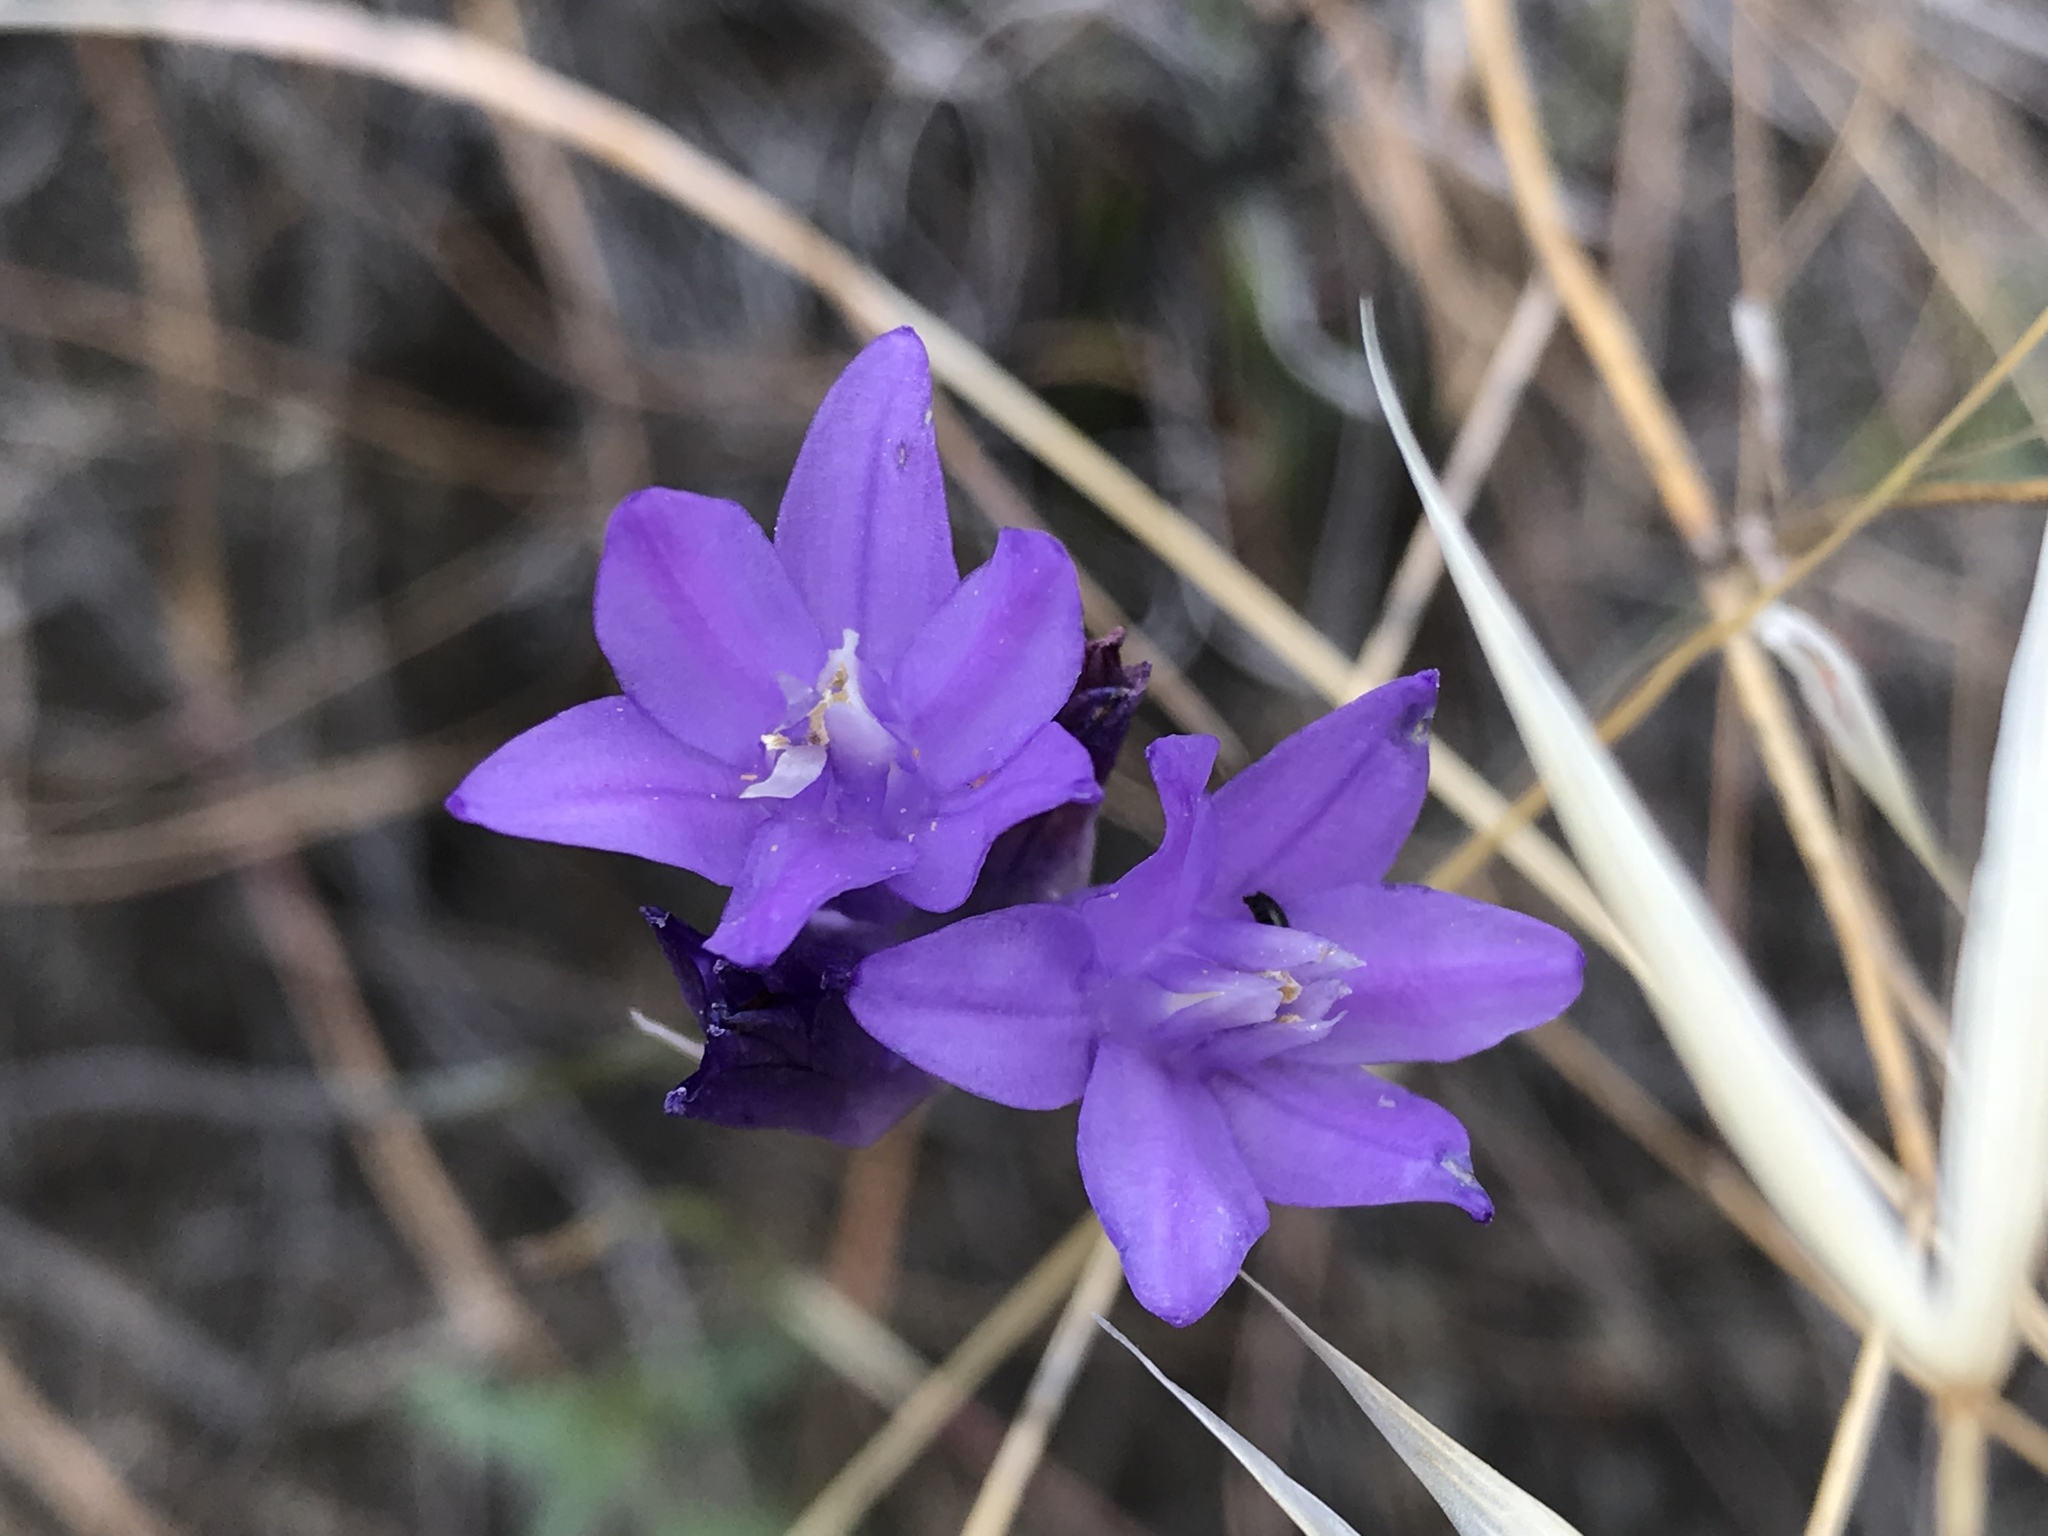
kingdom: Plantae
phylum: Tracheophyta
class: Liliopsida
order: Asparagales
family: Asparagaceae
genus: Dipterostemon
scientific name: Dipterostemon capitatus
